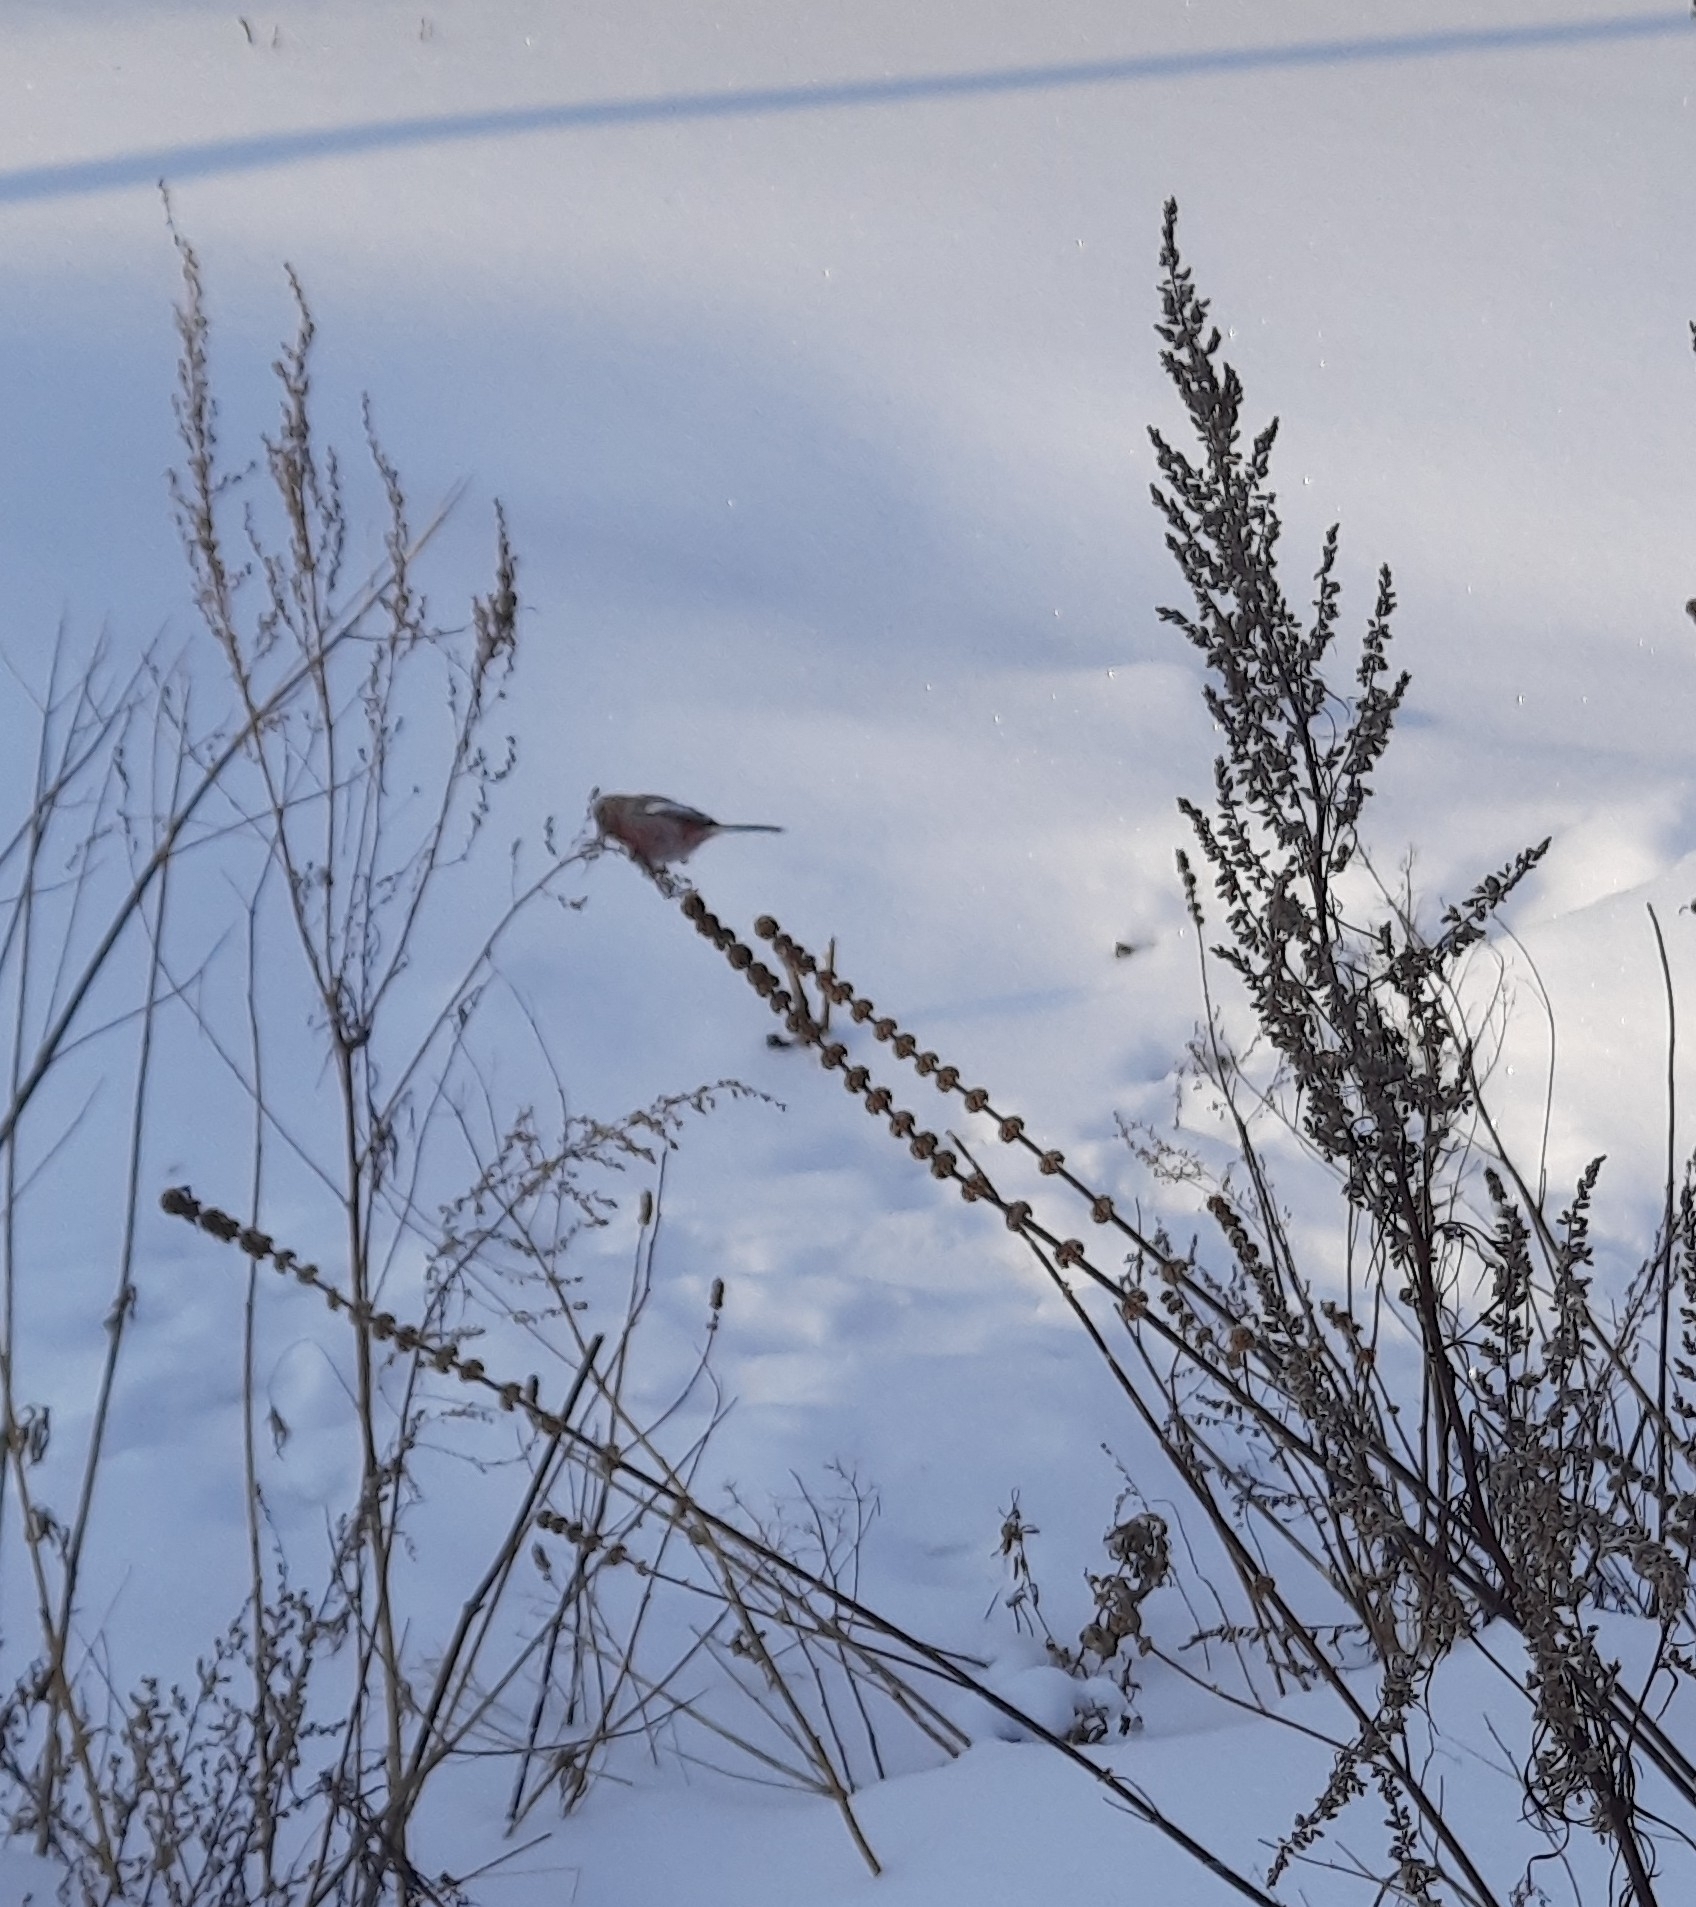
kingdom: Animalia
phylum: Chordata
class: Aves
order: Passeriformes
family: Fringillidae
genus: Carpodacus
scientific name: Carpodacus sibiricus
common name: Long-tailed rosefinch
